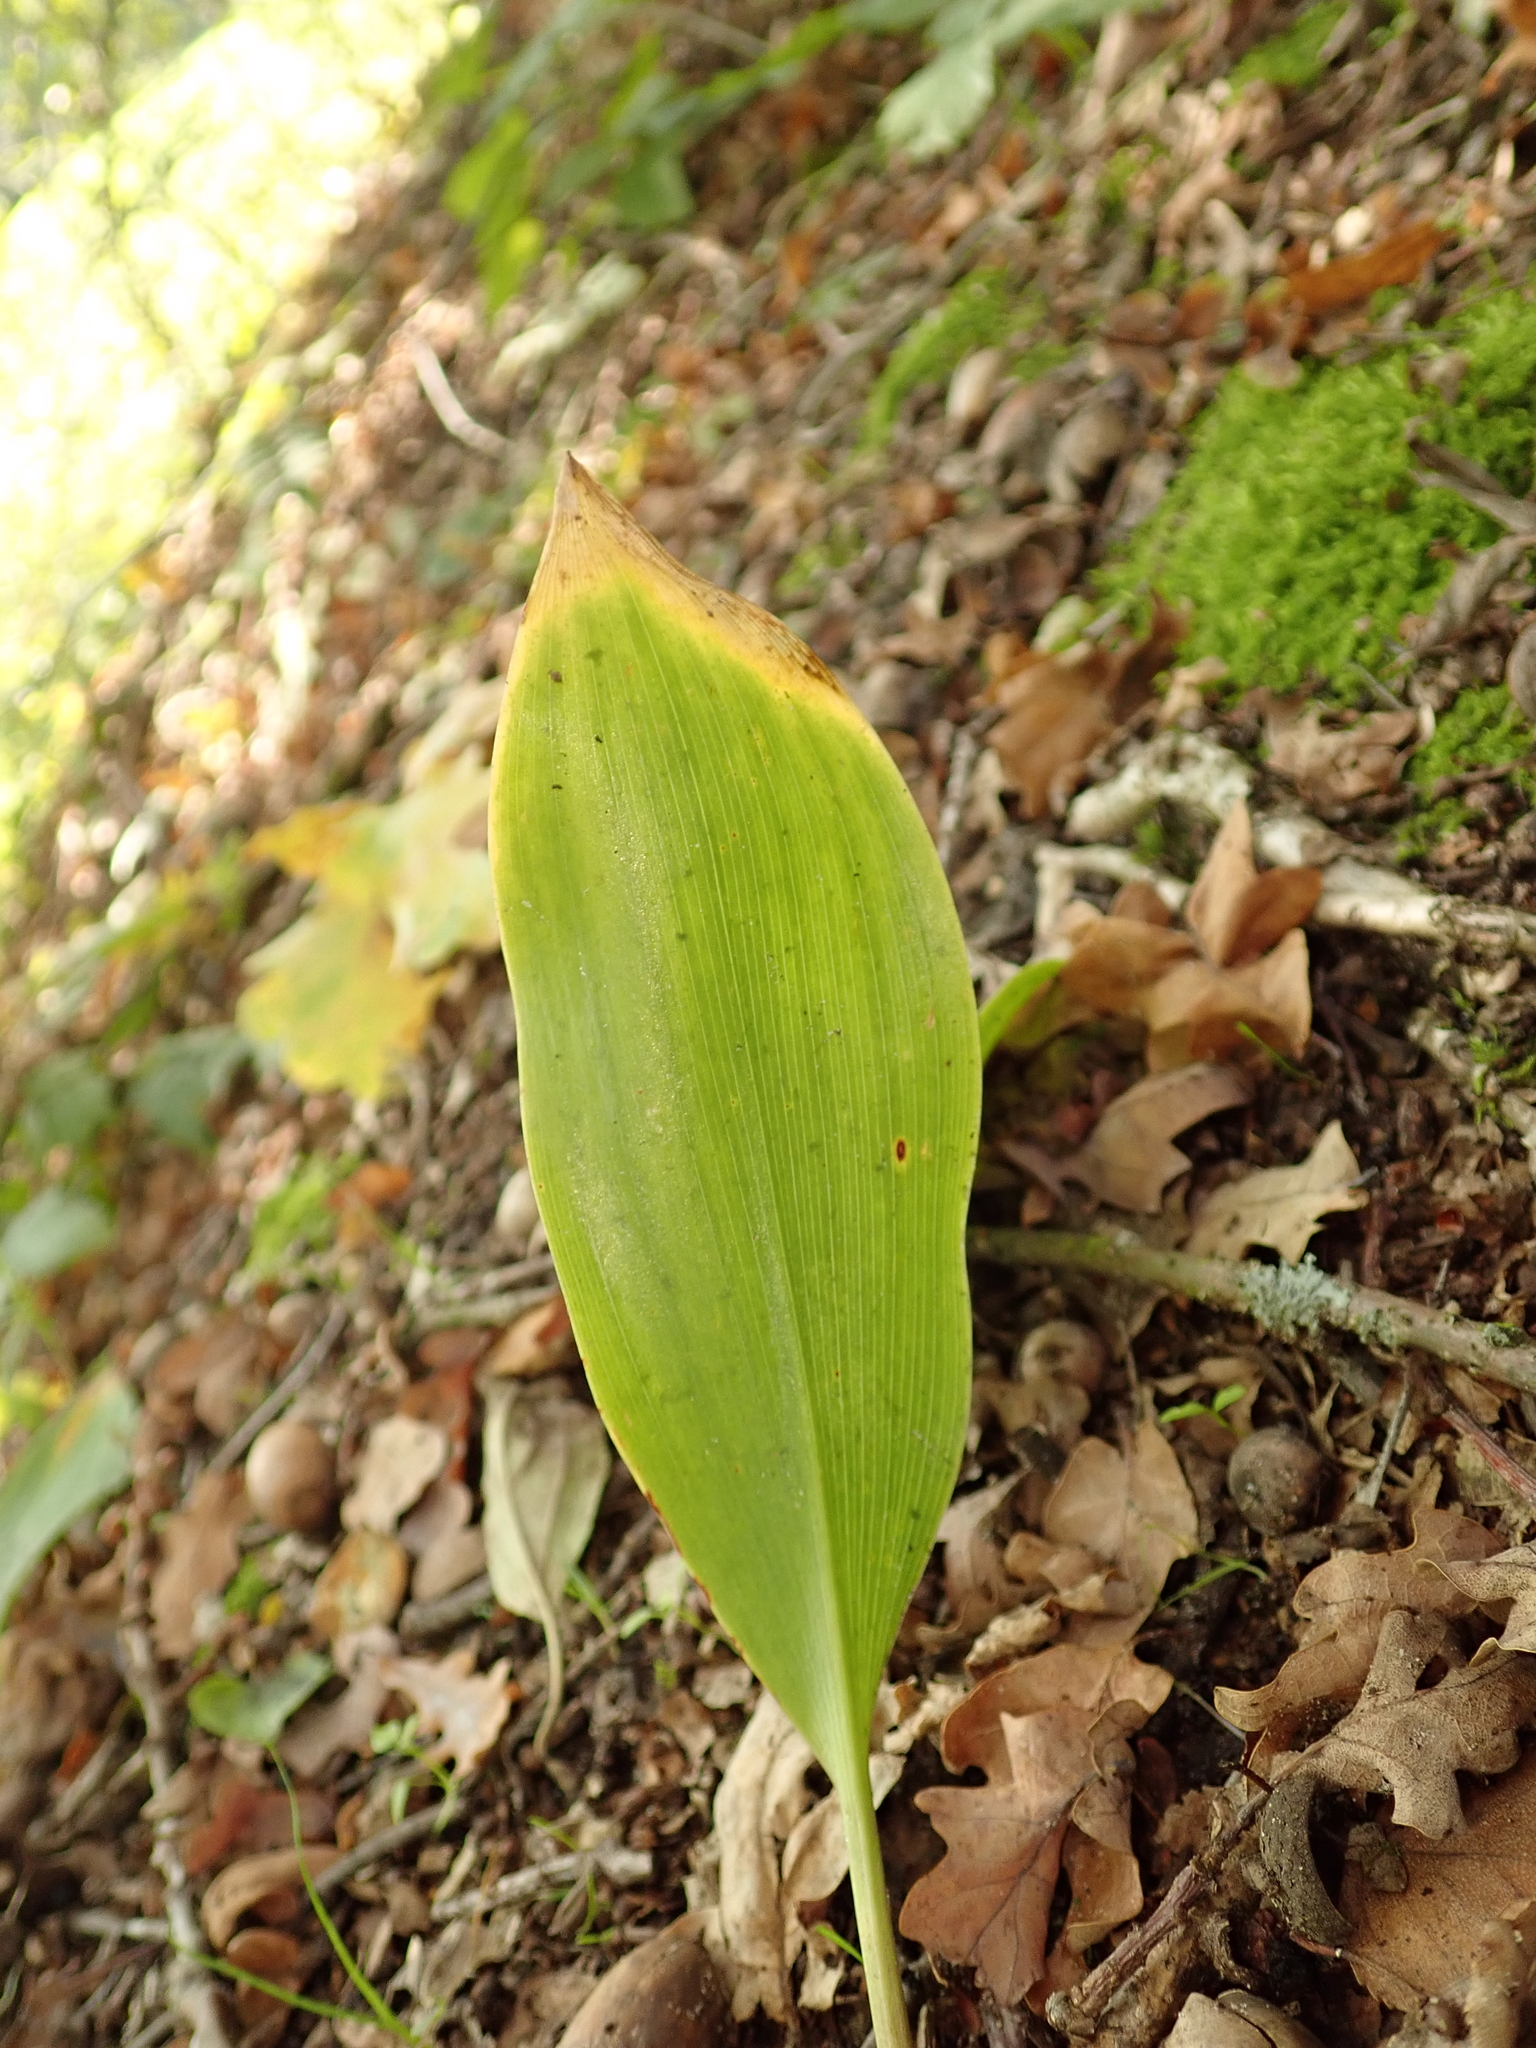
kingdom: Plantae
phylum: Tracheophyta
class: Liliopsida
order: Asparagales
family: Asparagaceae
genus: Convallaria
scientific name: Convallaria majalis
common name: Lily-of-the-valley
